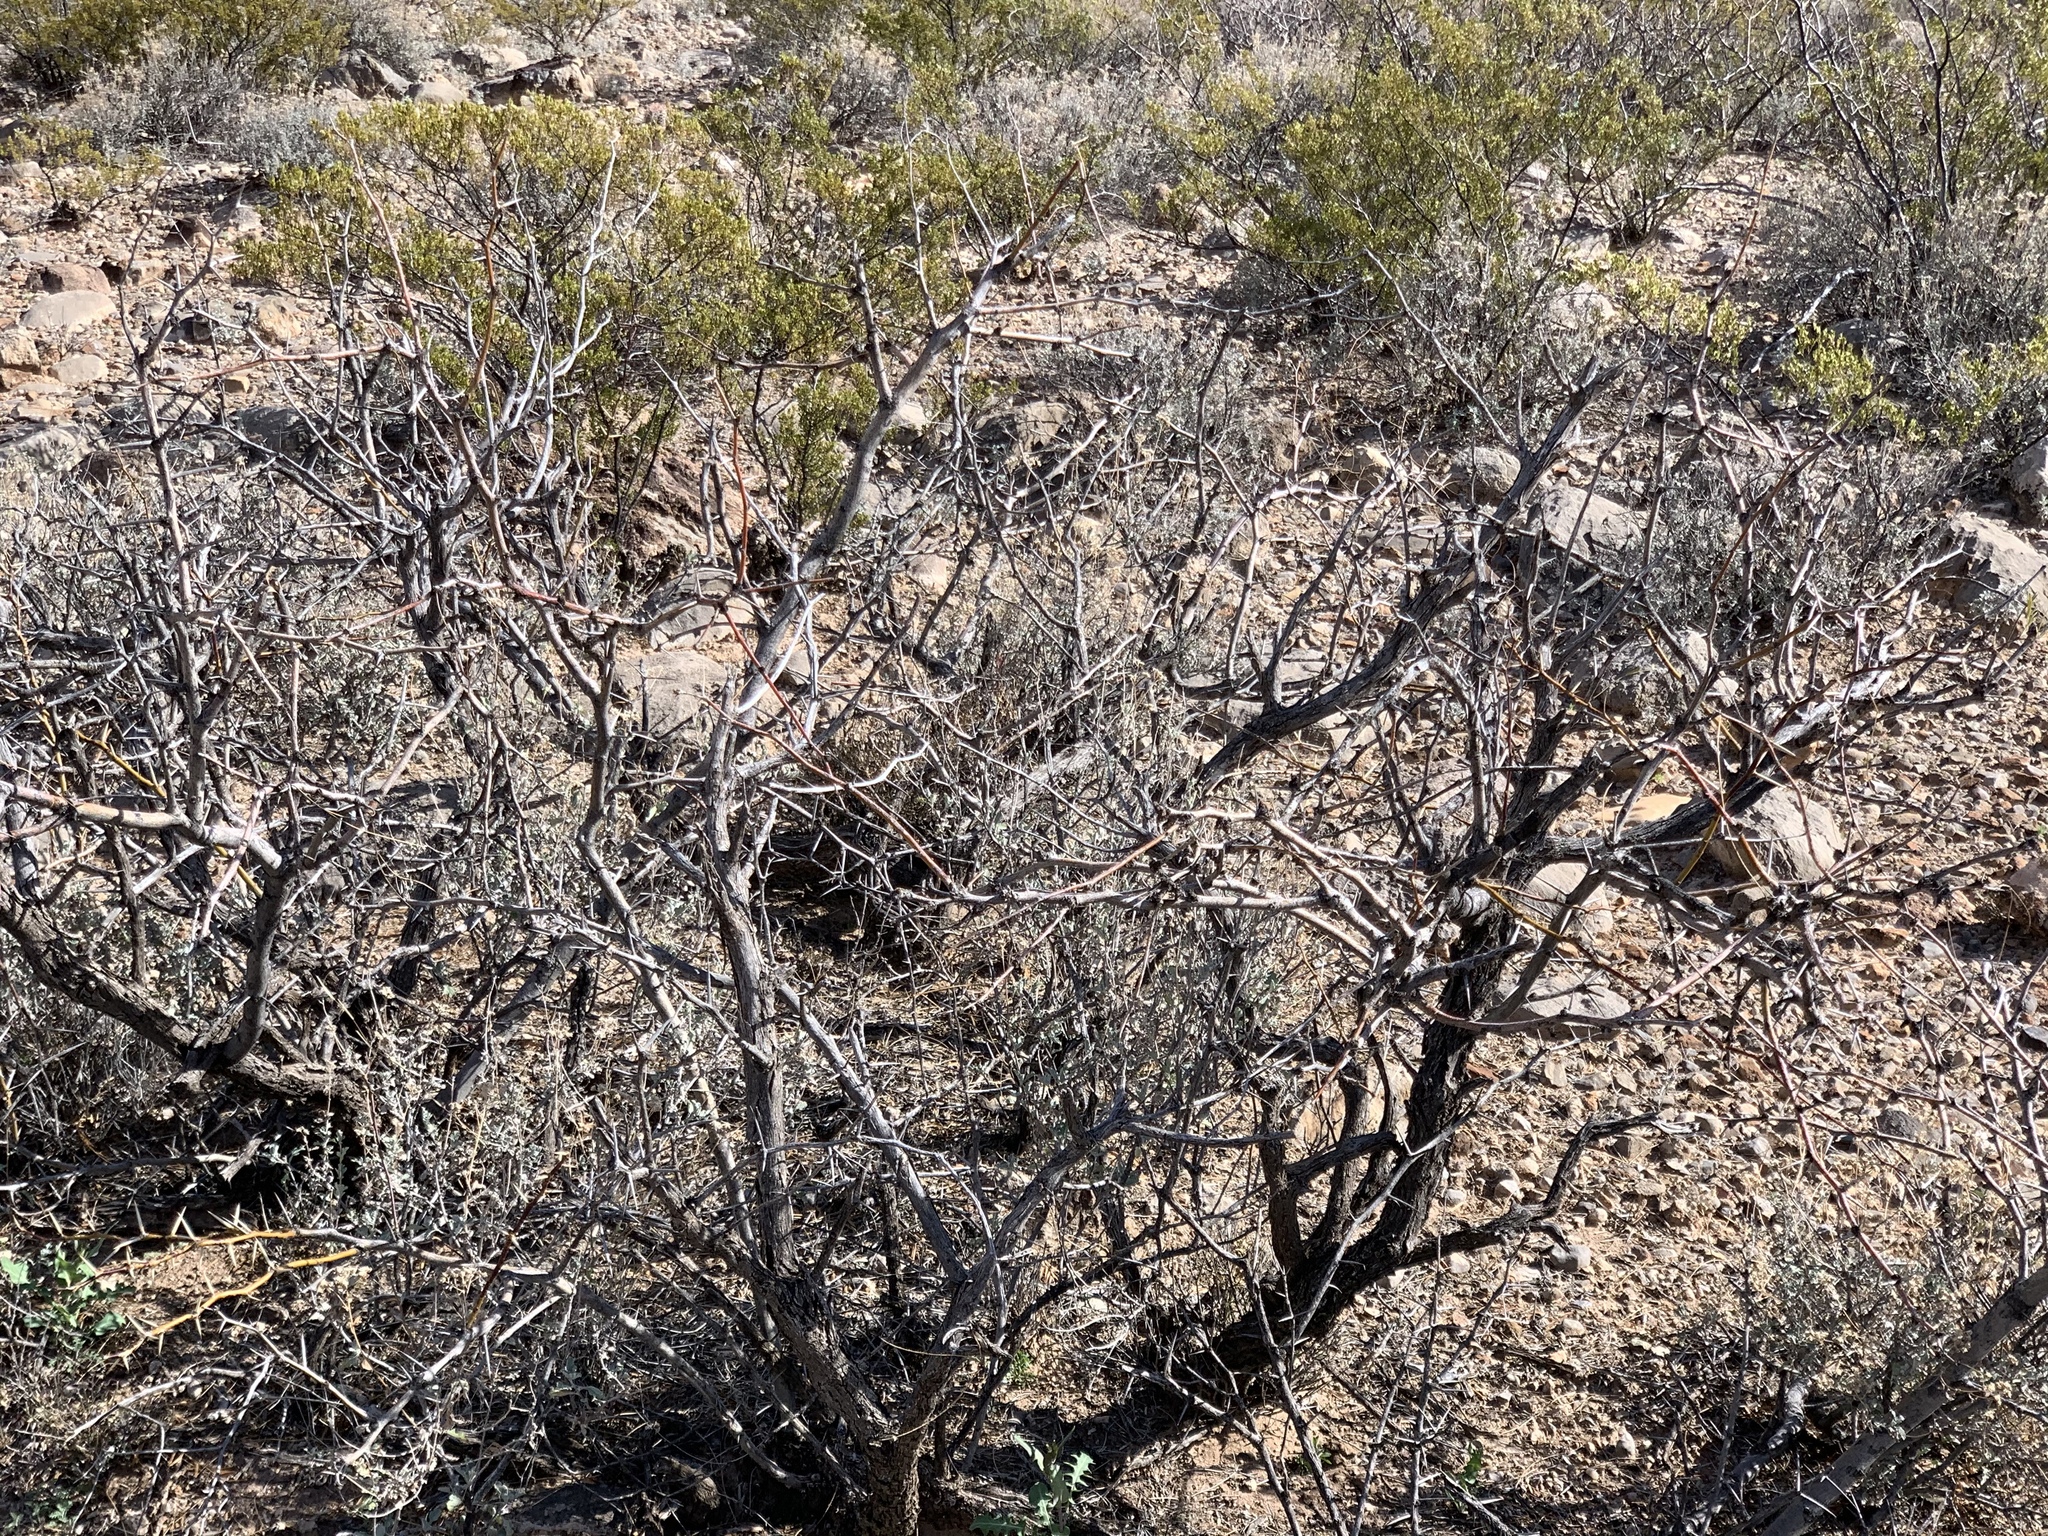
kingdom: Plantae
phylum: Tracheophyta
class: Magnoliopsida
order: Fabales
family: Fabaceae
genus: Prosopis
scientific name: Prosopis glandulosa
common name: Honey mesquite
